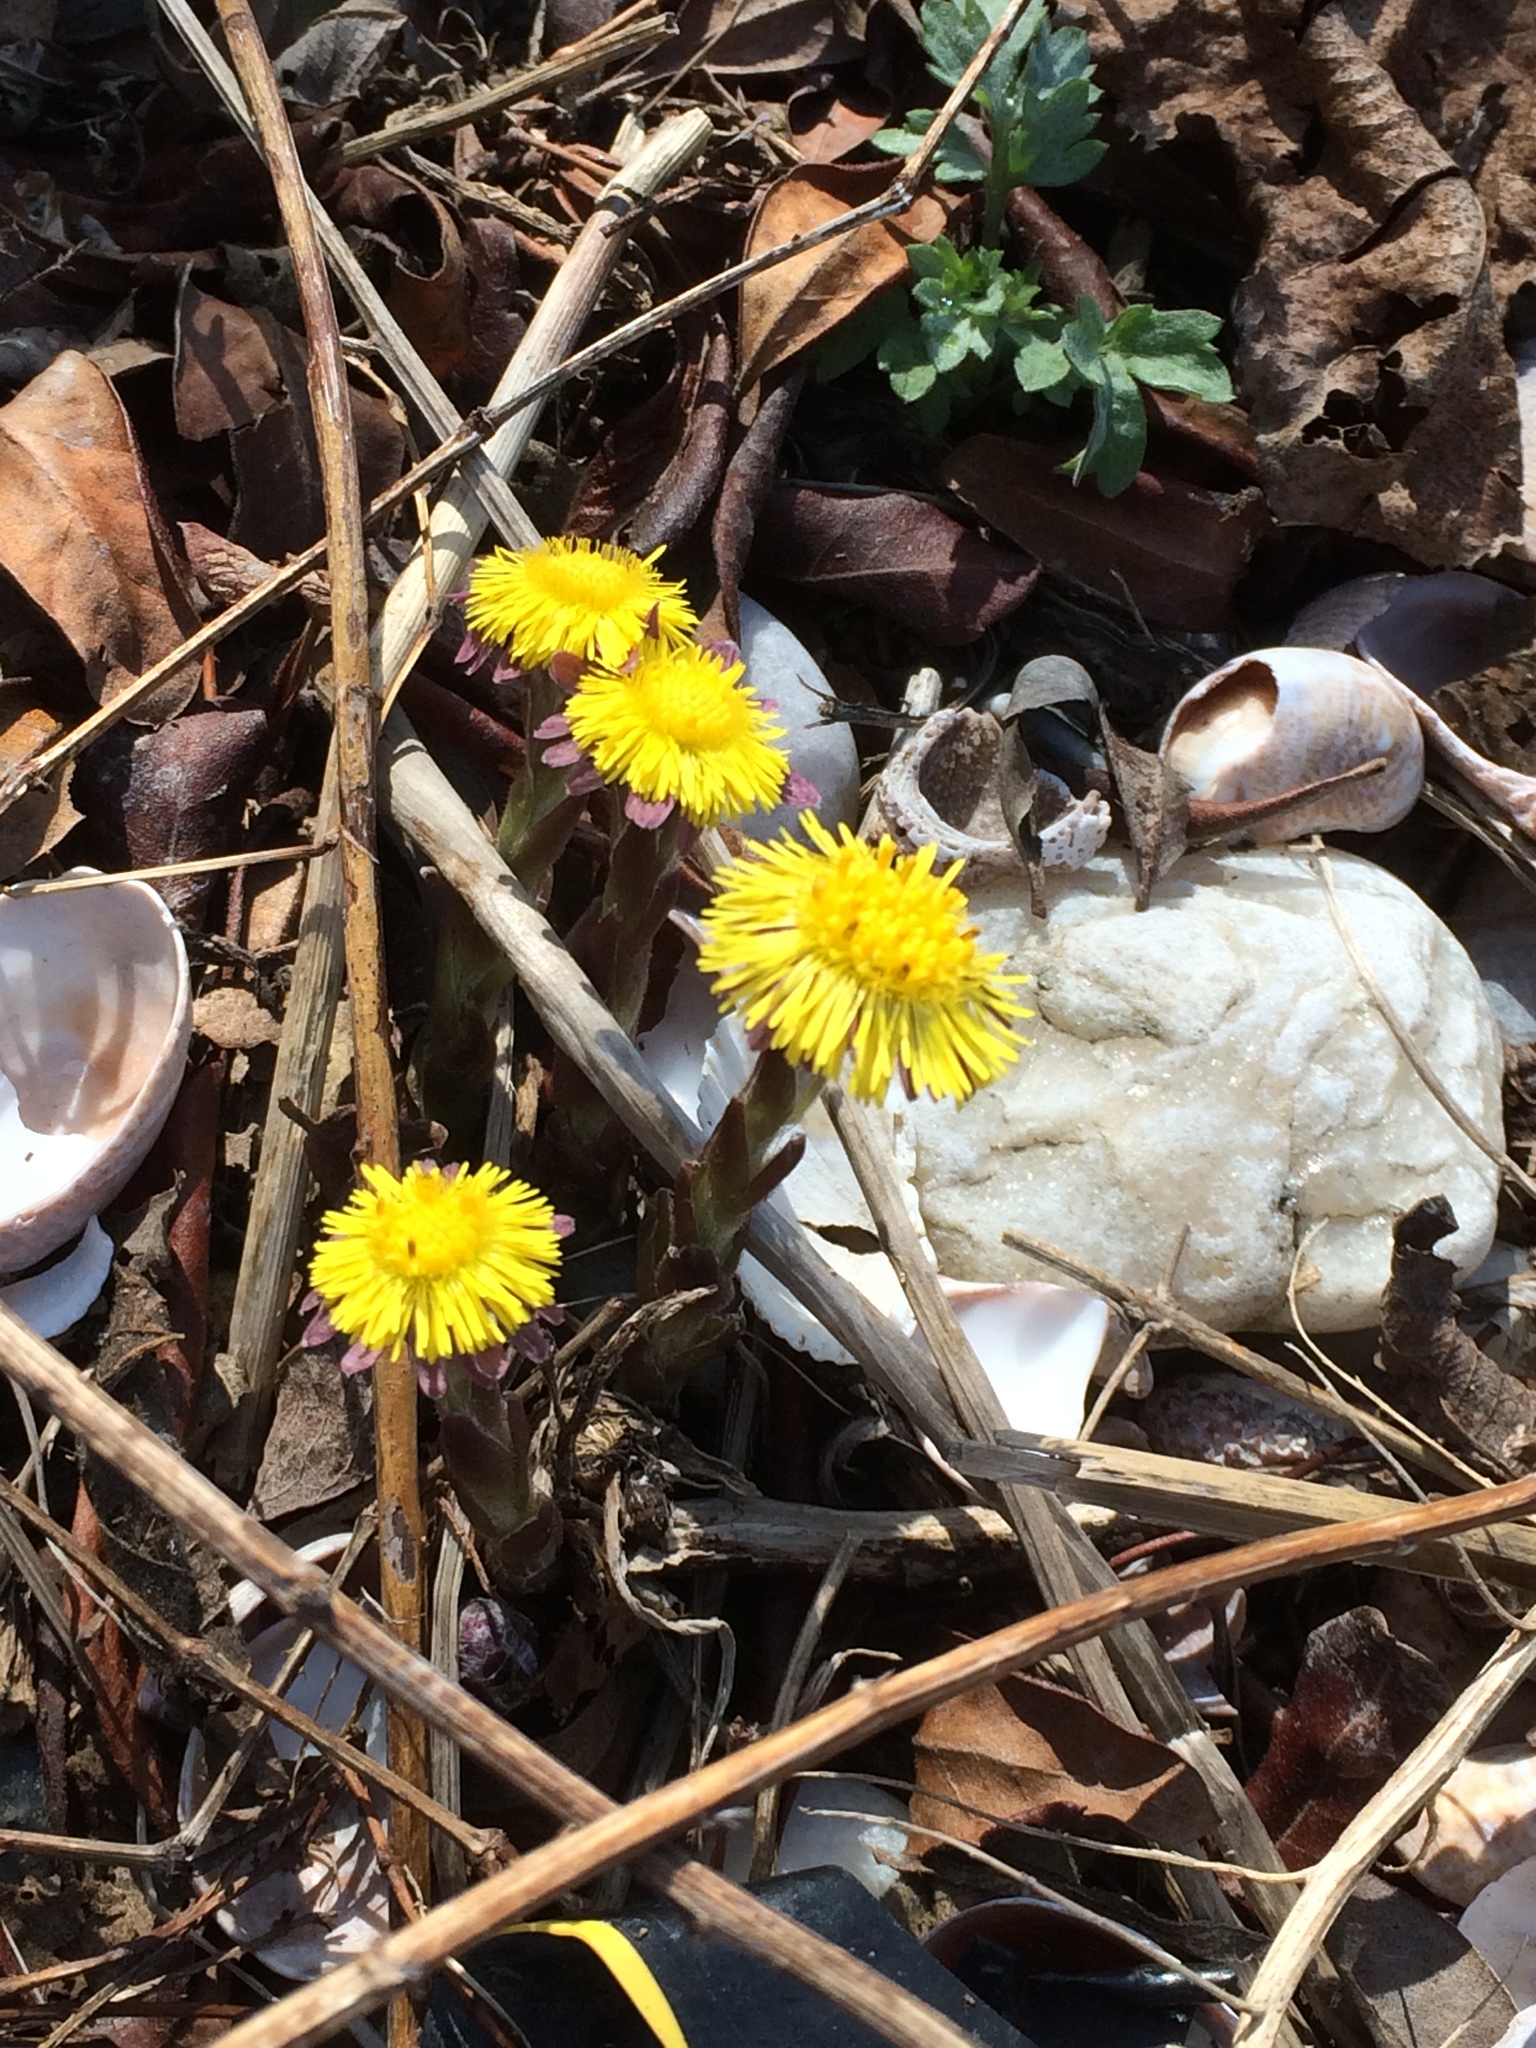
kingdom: Plantae
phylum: Tracheophyta
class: Magnoliopsida
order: Asterales
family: Asteraceae
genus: Tussilago
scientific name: Tussilago farfara
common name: Coltsfoot
